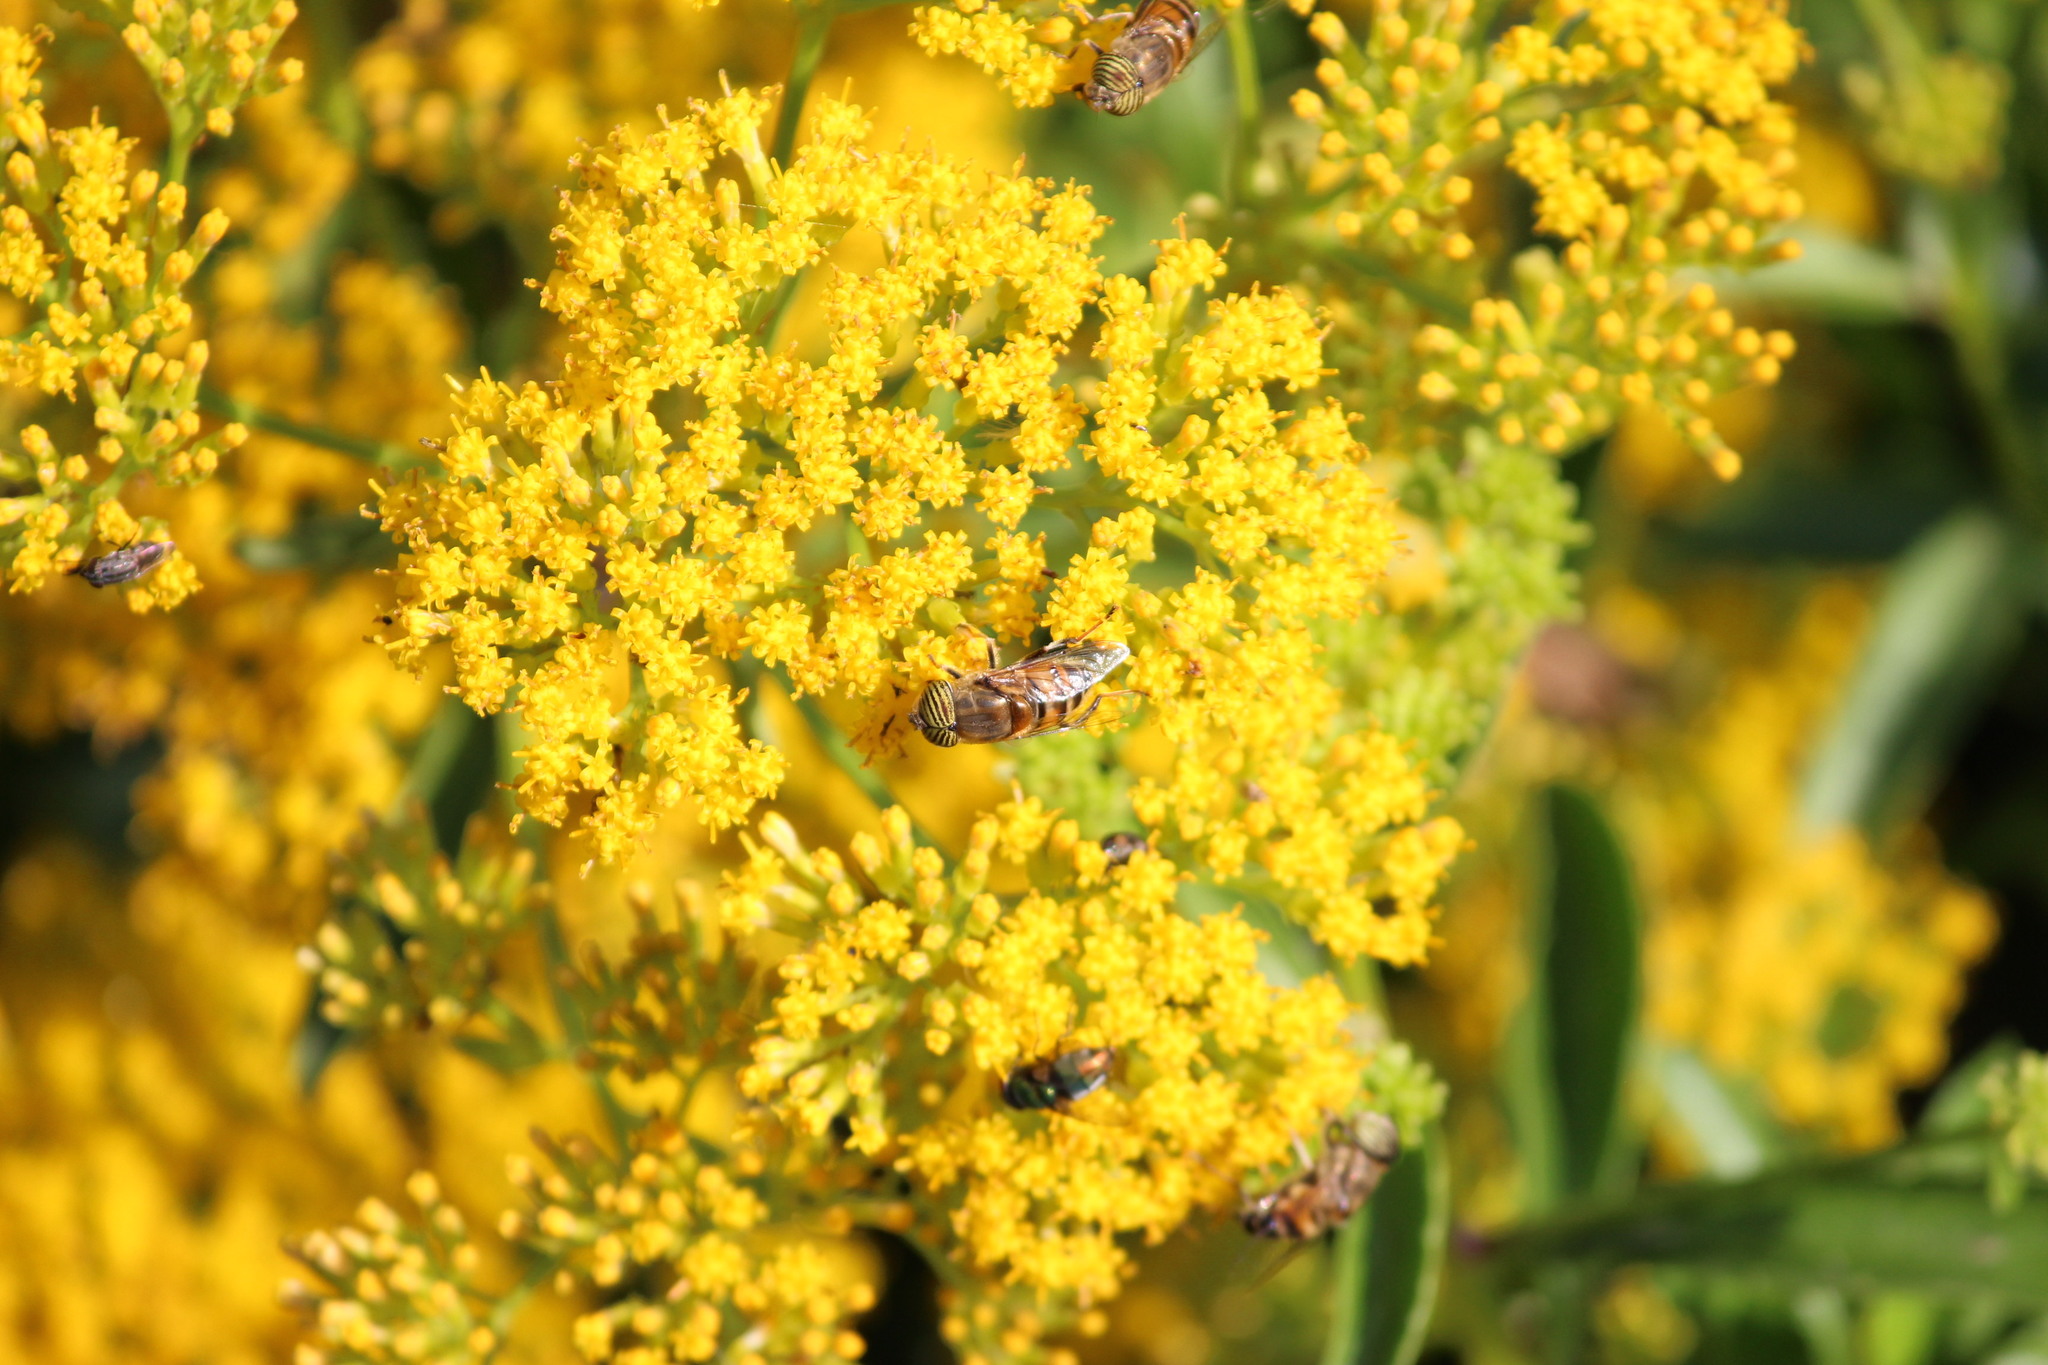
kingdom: Animalia
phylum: Arthropoda
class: Insecta
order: Diptera
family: Syrphidae
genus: Eristalinus
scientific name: Eristalinus taeniops
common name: Syrphid fly
